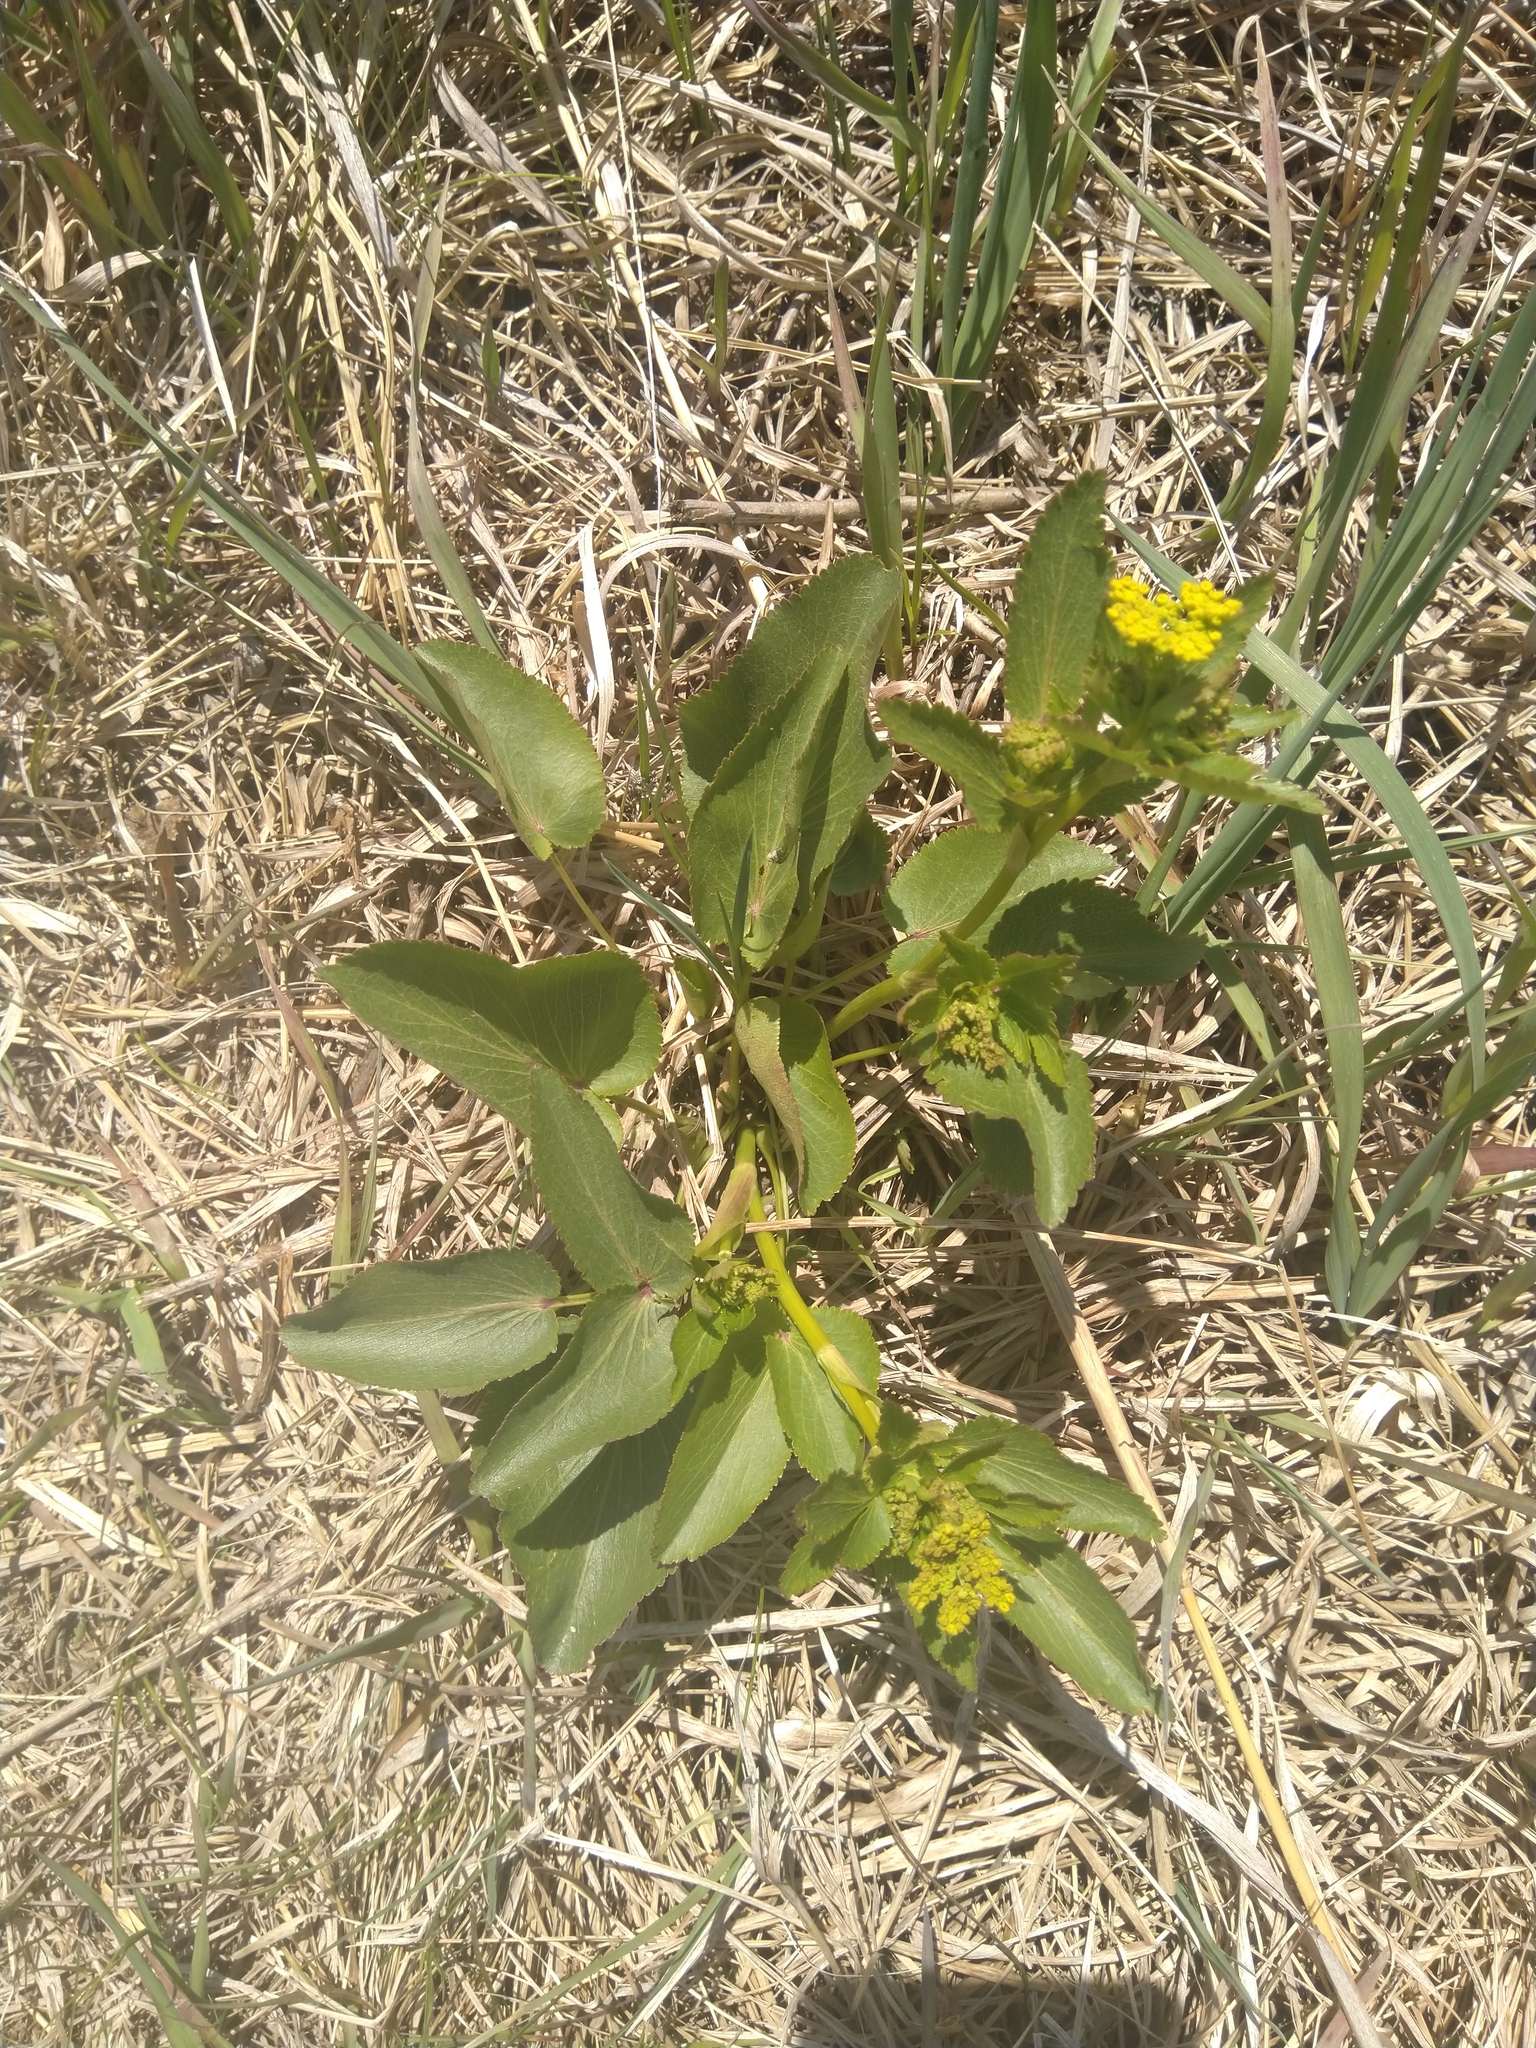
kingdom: Plantae
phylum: Tracheophyta
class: Magnoliopsida
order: Apiales
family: Apiaceae
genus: Zizia
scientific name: Zizia aptera
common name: Heart-leaved alexanders
